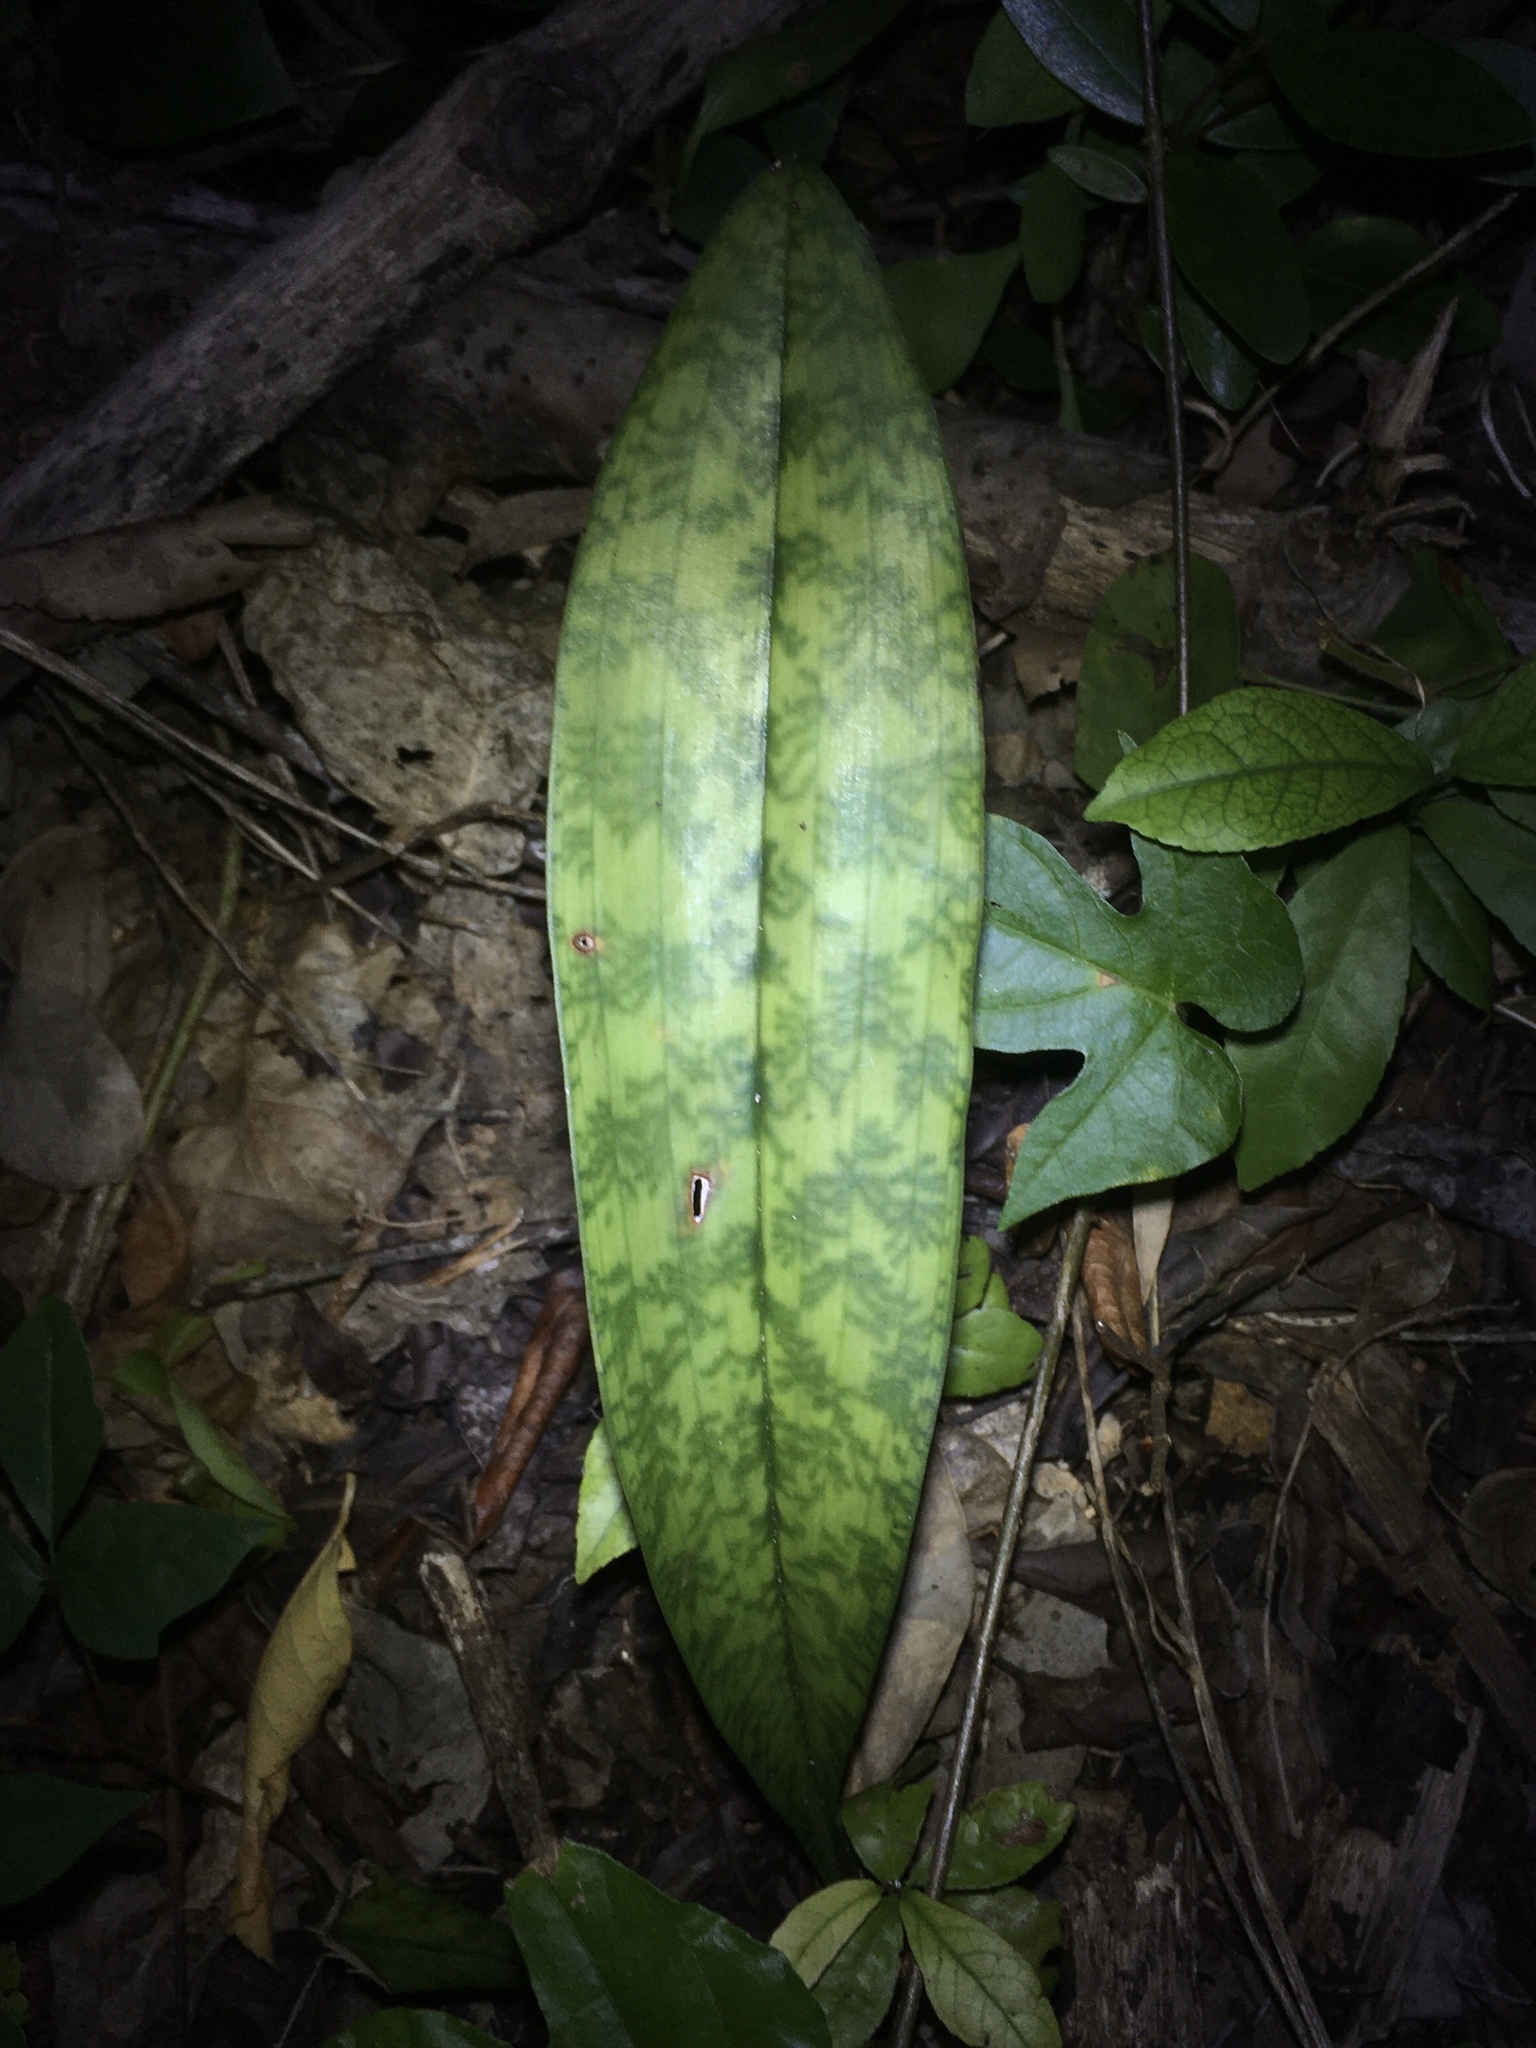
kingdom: Plantae
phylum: Tracheophyta
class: Liliopsida
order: Asparagales
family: Orchidaceae
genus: Eulophia
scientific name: Eulophia maculata
